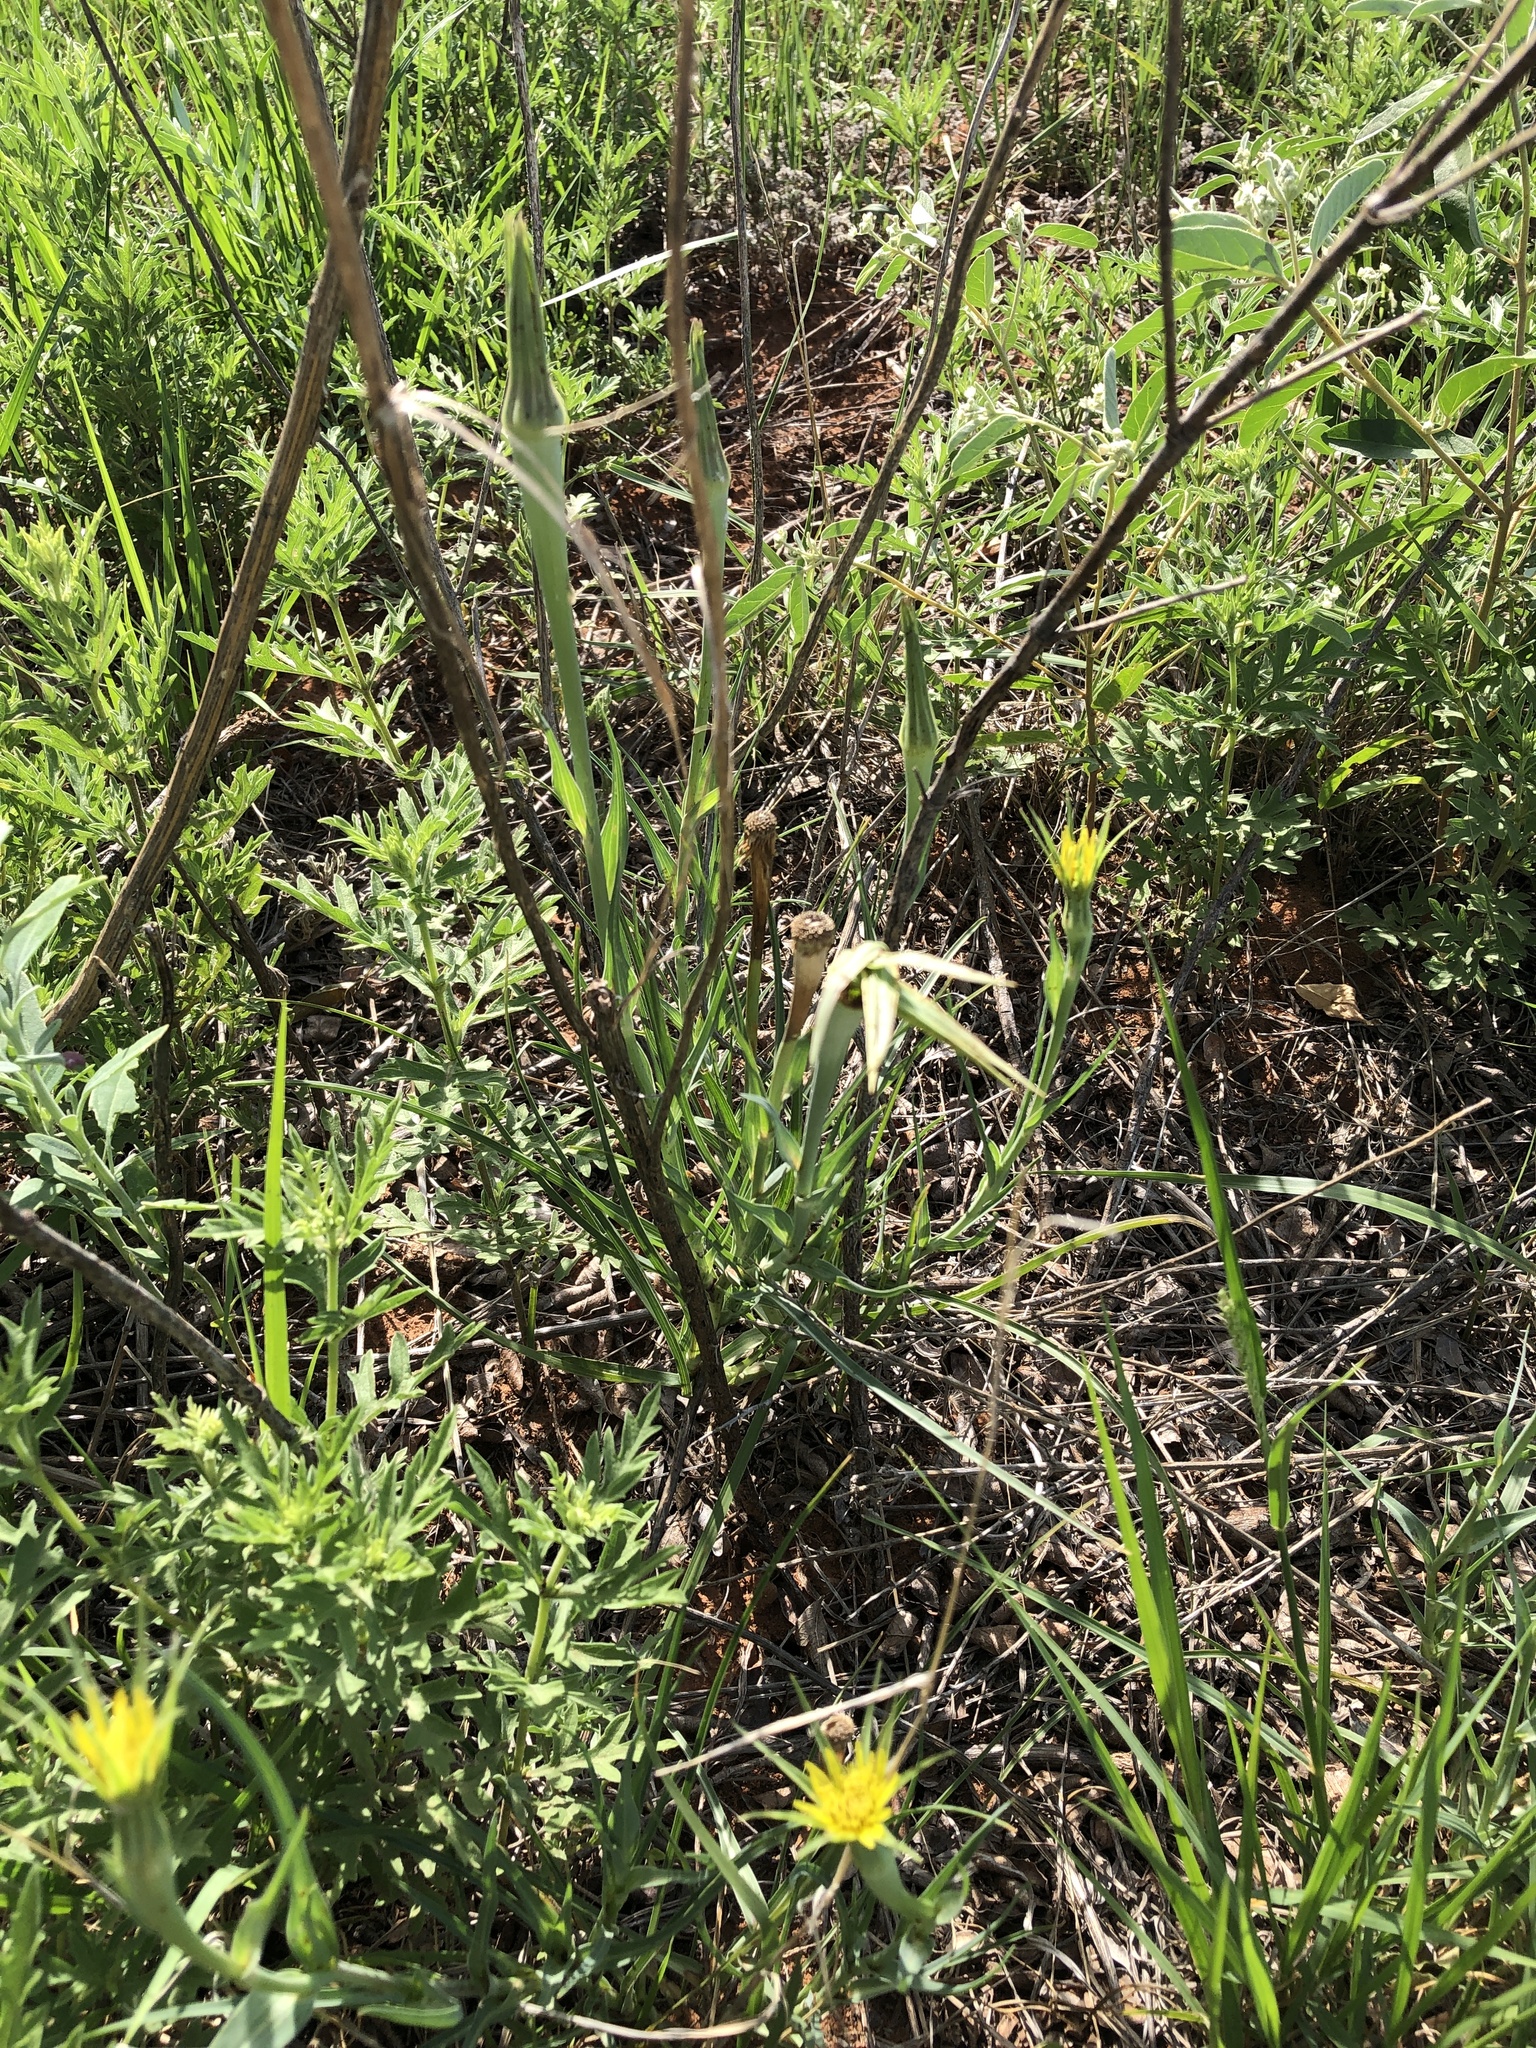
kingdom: Plantae
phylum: Tracheophyta
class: Magnoliopsida
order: Asterales
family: Asteraceae
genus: Tragopogon
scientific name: Tragopogon dubius
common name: Yellow salsify
